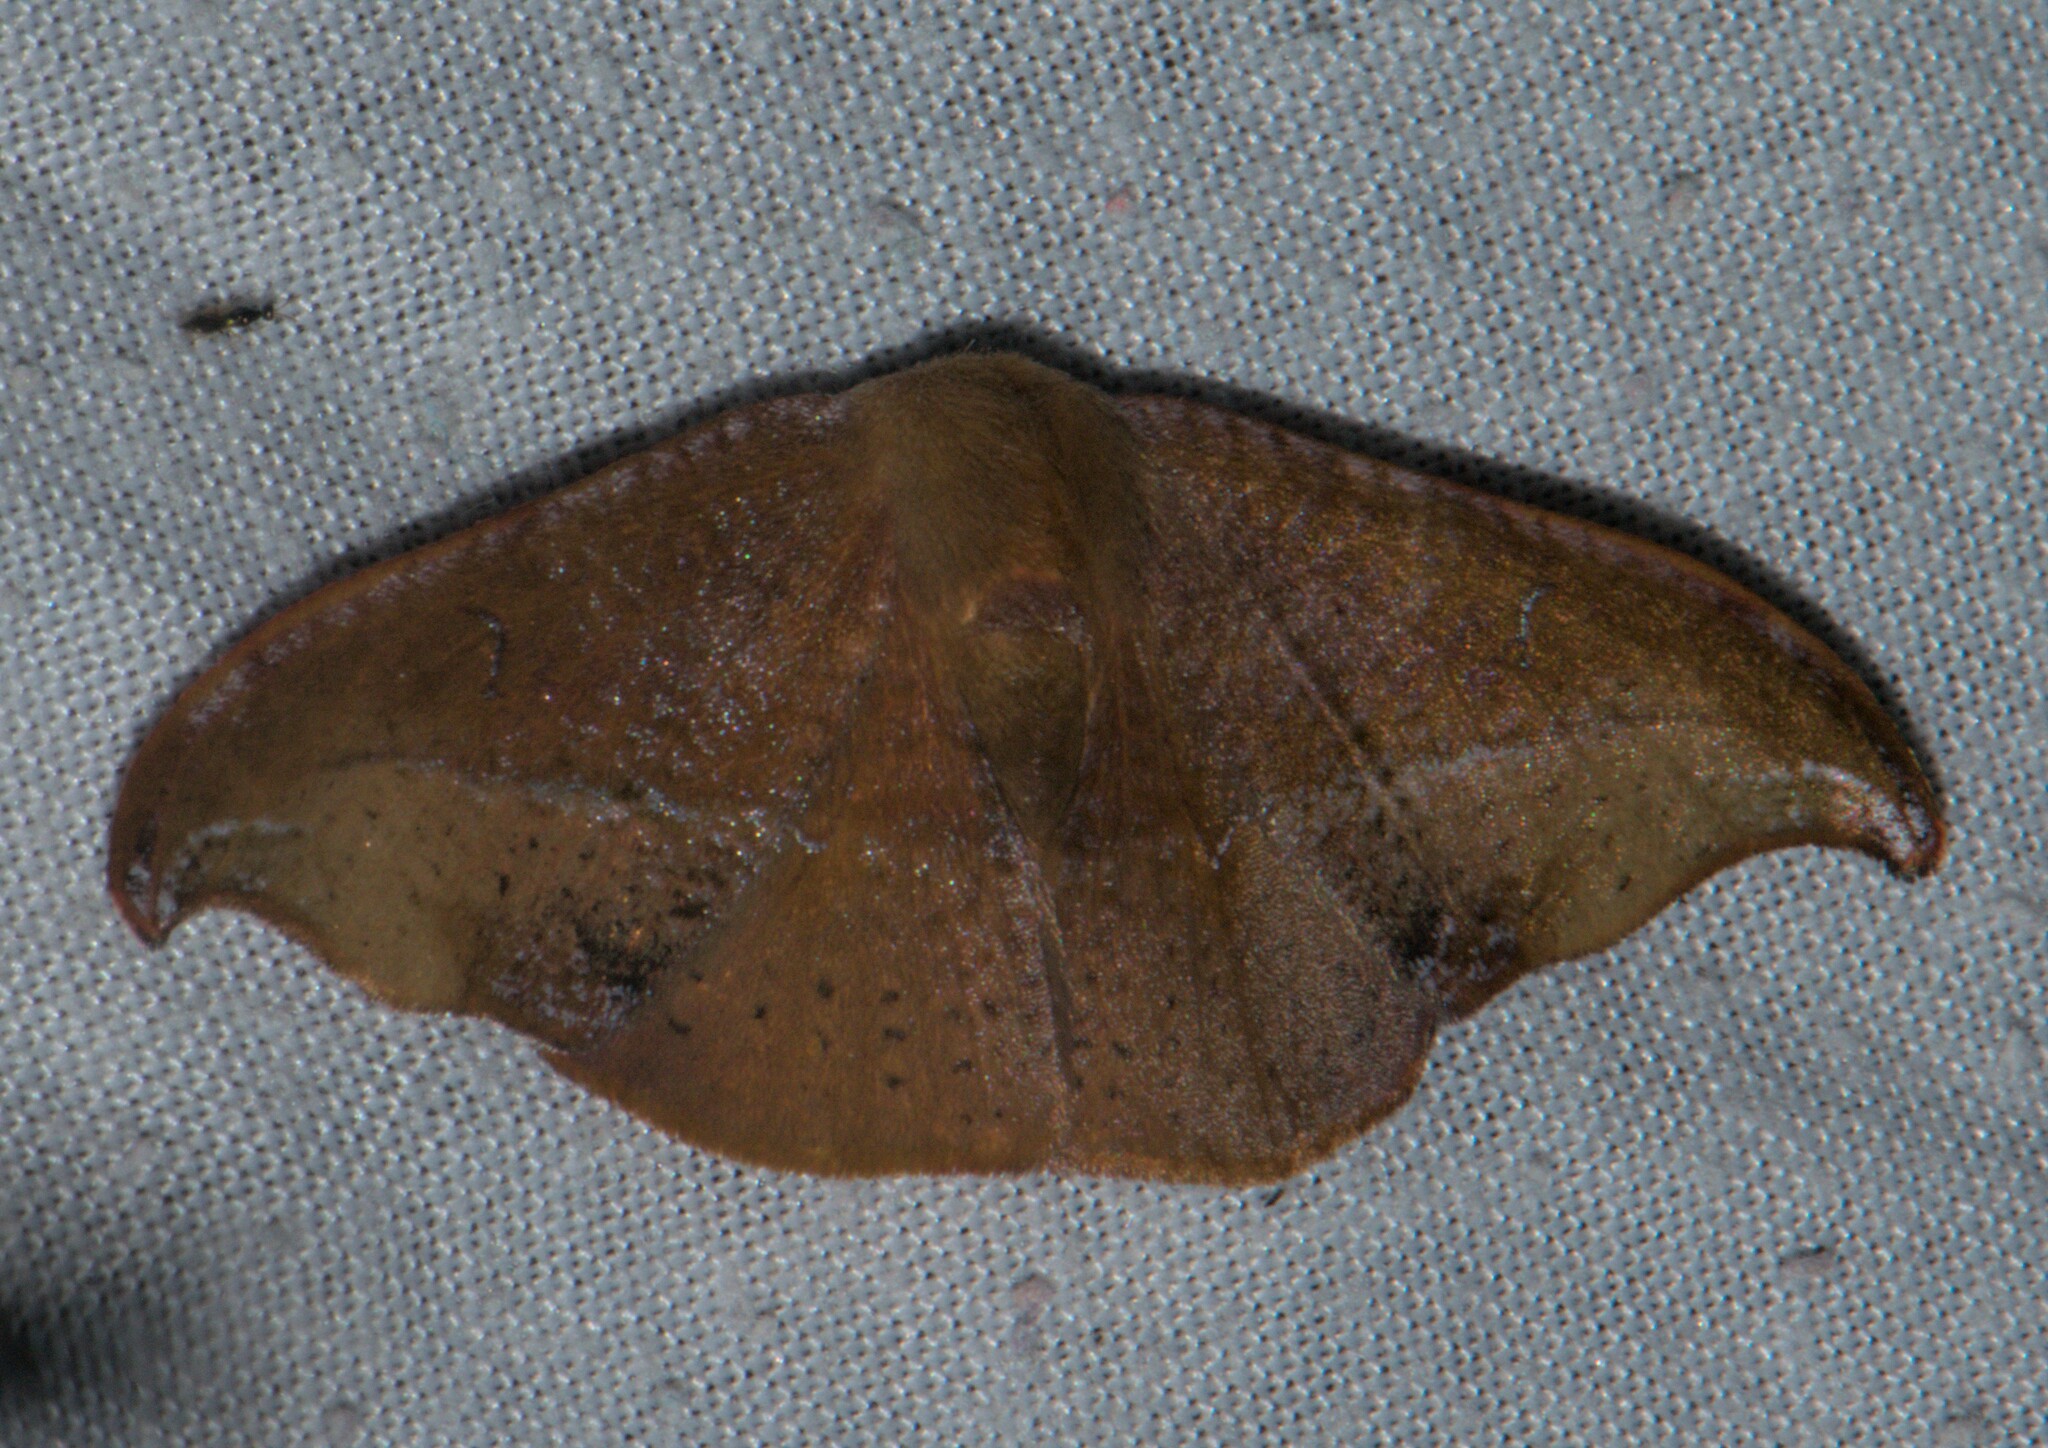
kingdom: Animalia
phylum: Arthropoda
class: Insecta
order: Lepidoptera
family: Drepanidae
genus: Oreta
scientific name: Oreta pavaca
